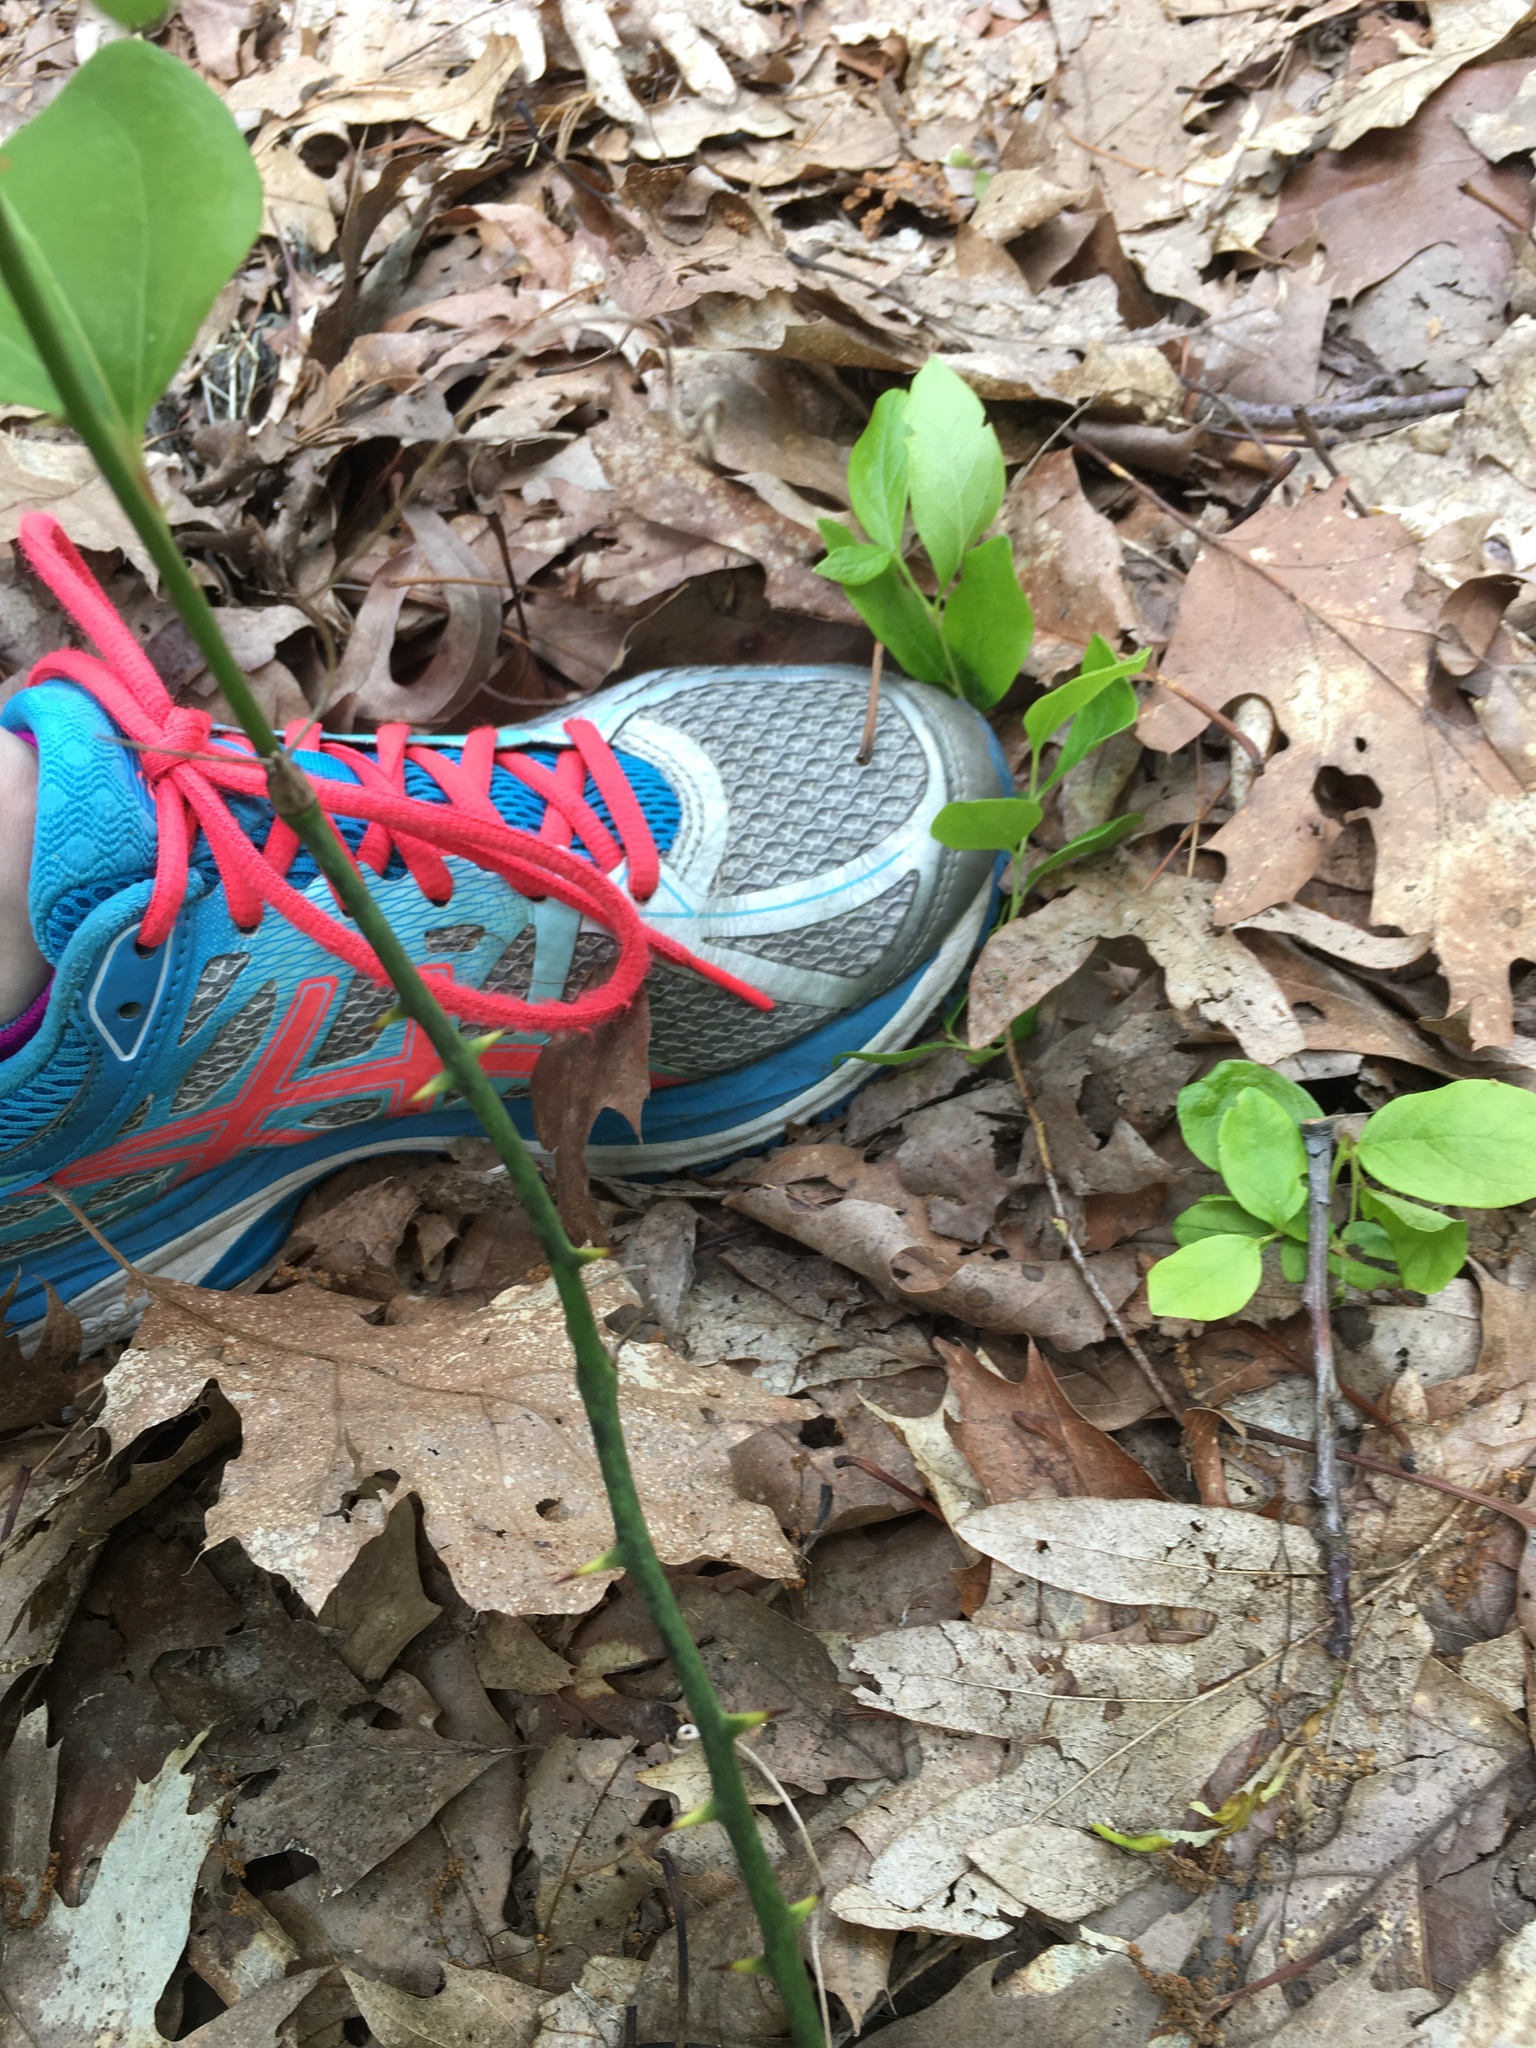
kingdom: Plantae
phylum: Tracheophyta
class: Liliopsida
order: Liliales
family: Smilacaceae
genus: Smilax
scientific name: Smilax rotundifolia
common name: Bullbriar
